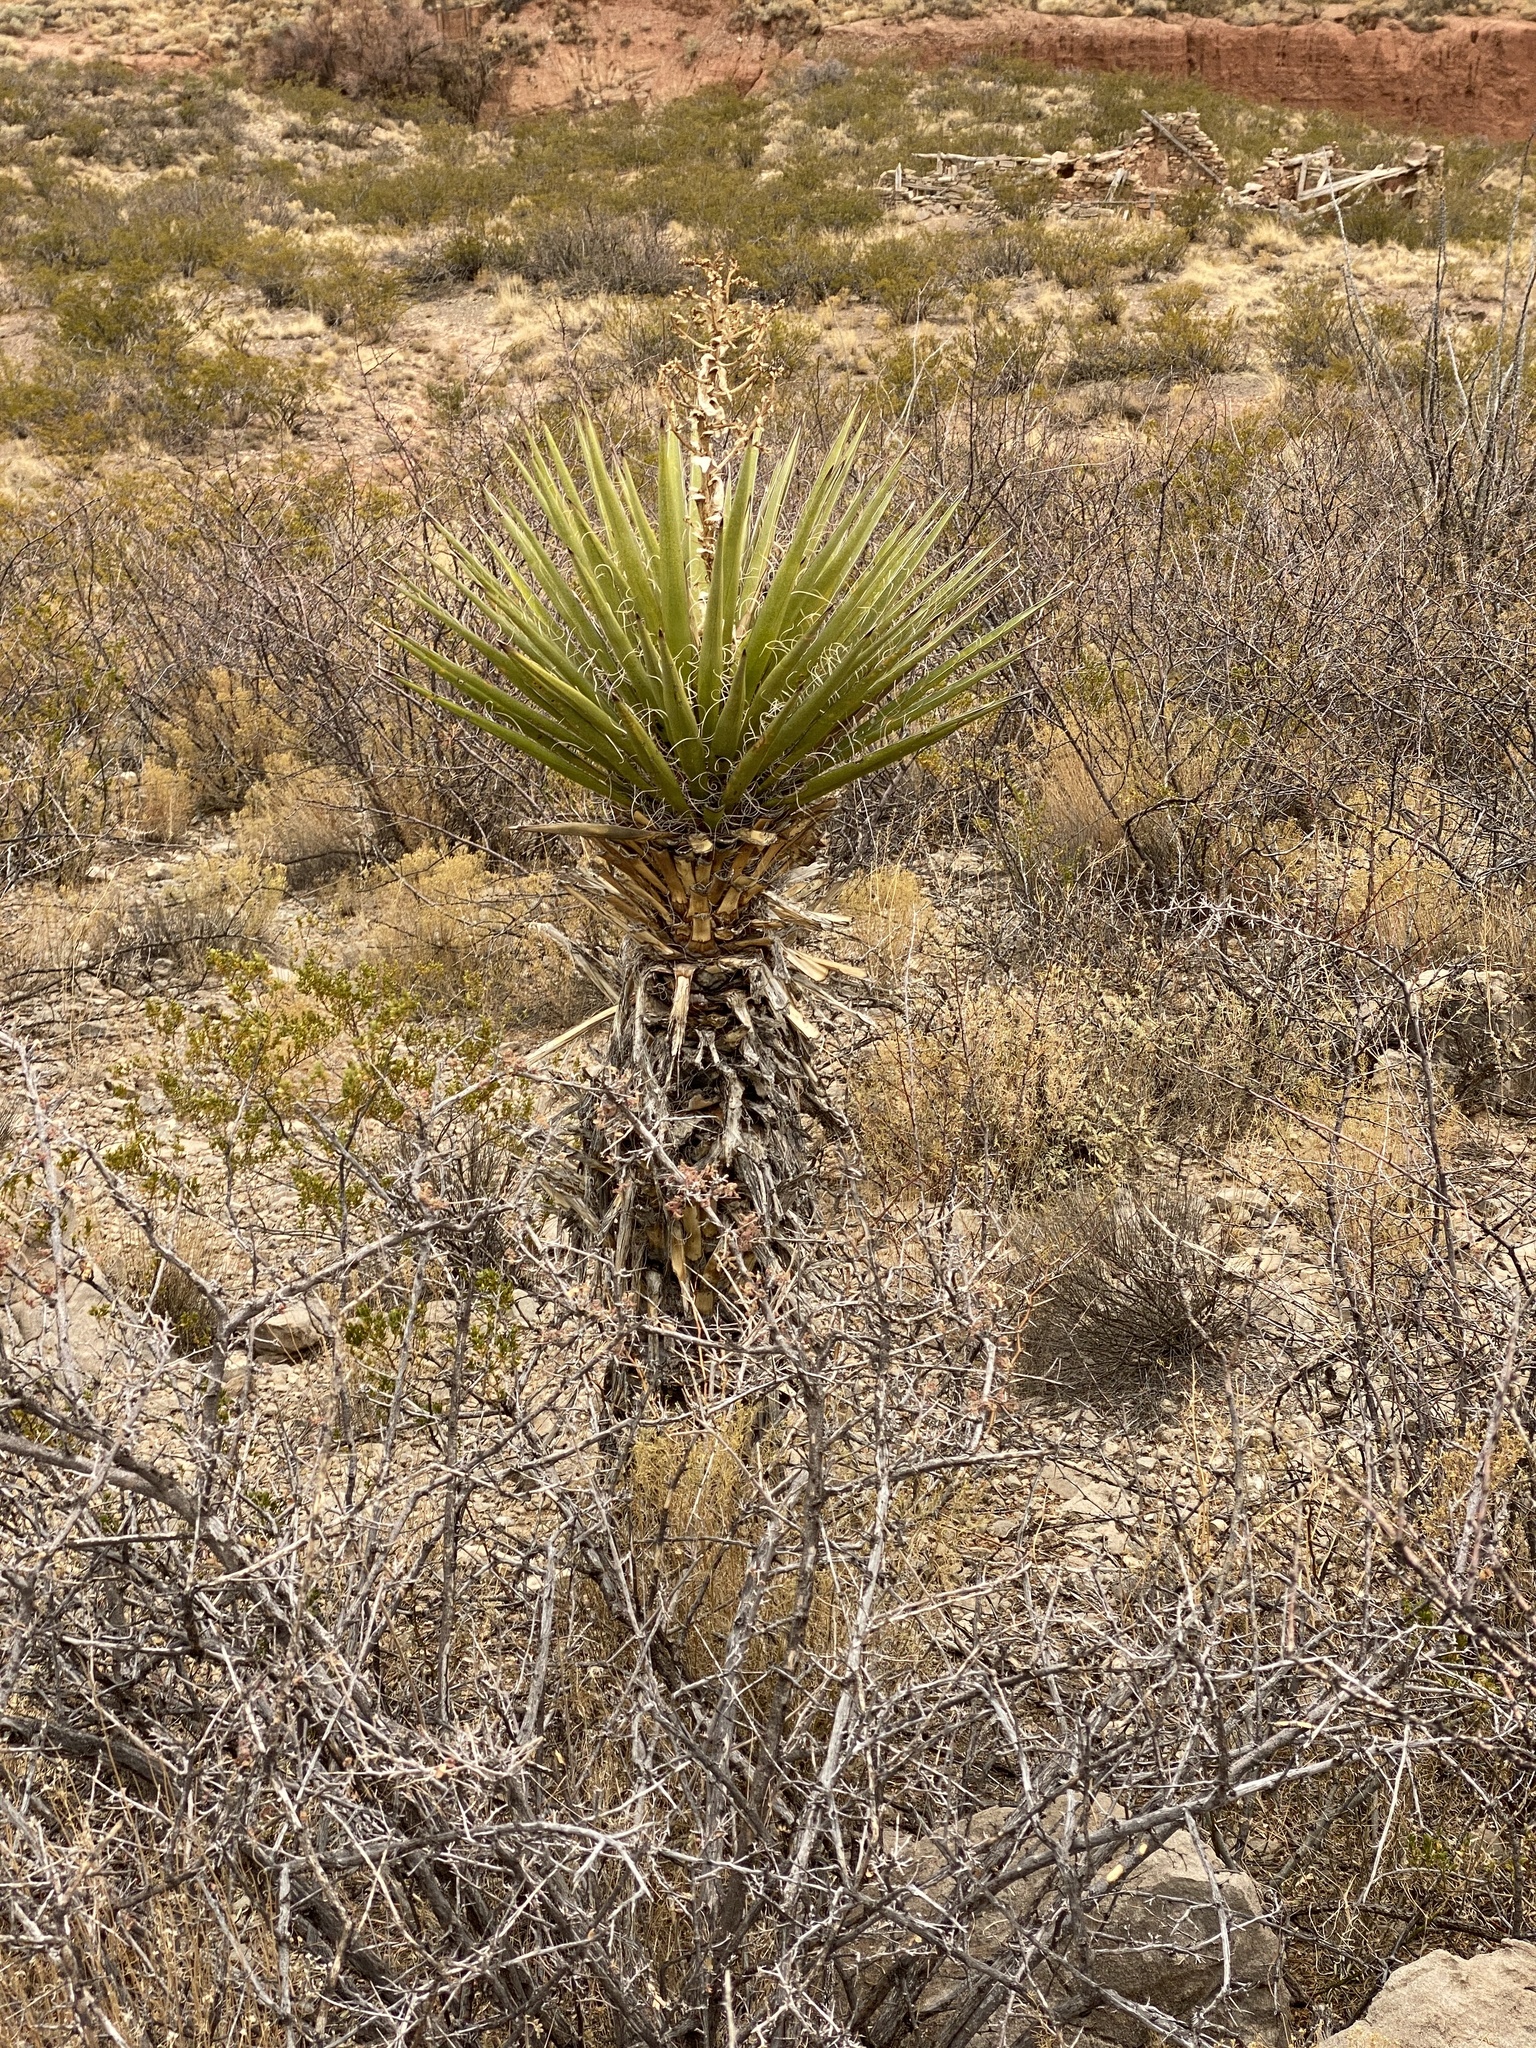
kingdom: Plantae
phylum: Tracheophyta
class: Liliopsida
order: Asparagales
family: Asparagaceae
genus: Yucca
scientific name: Yucca treculiana
